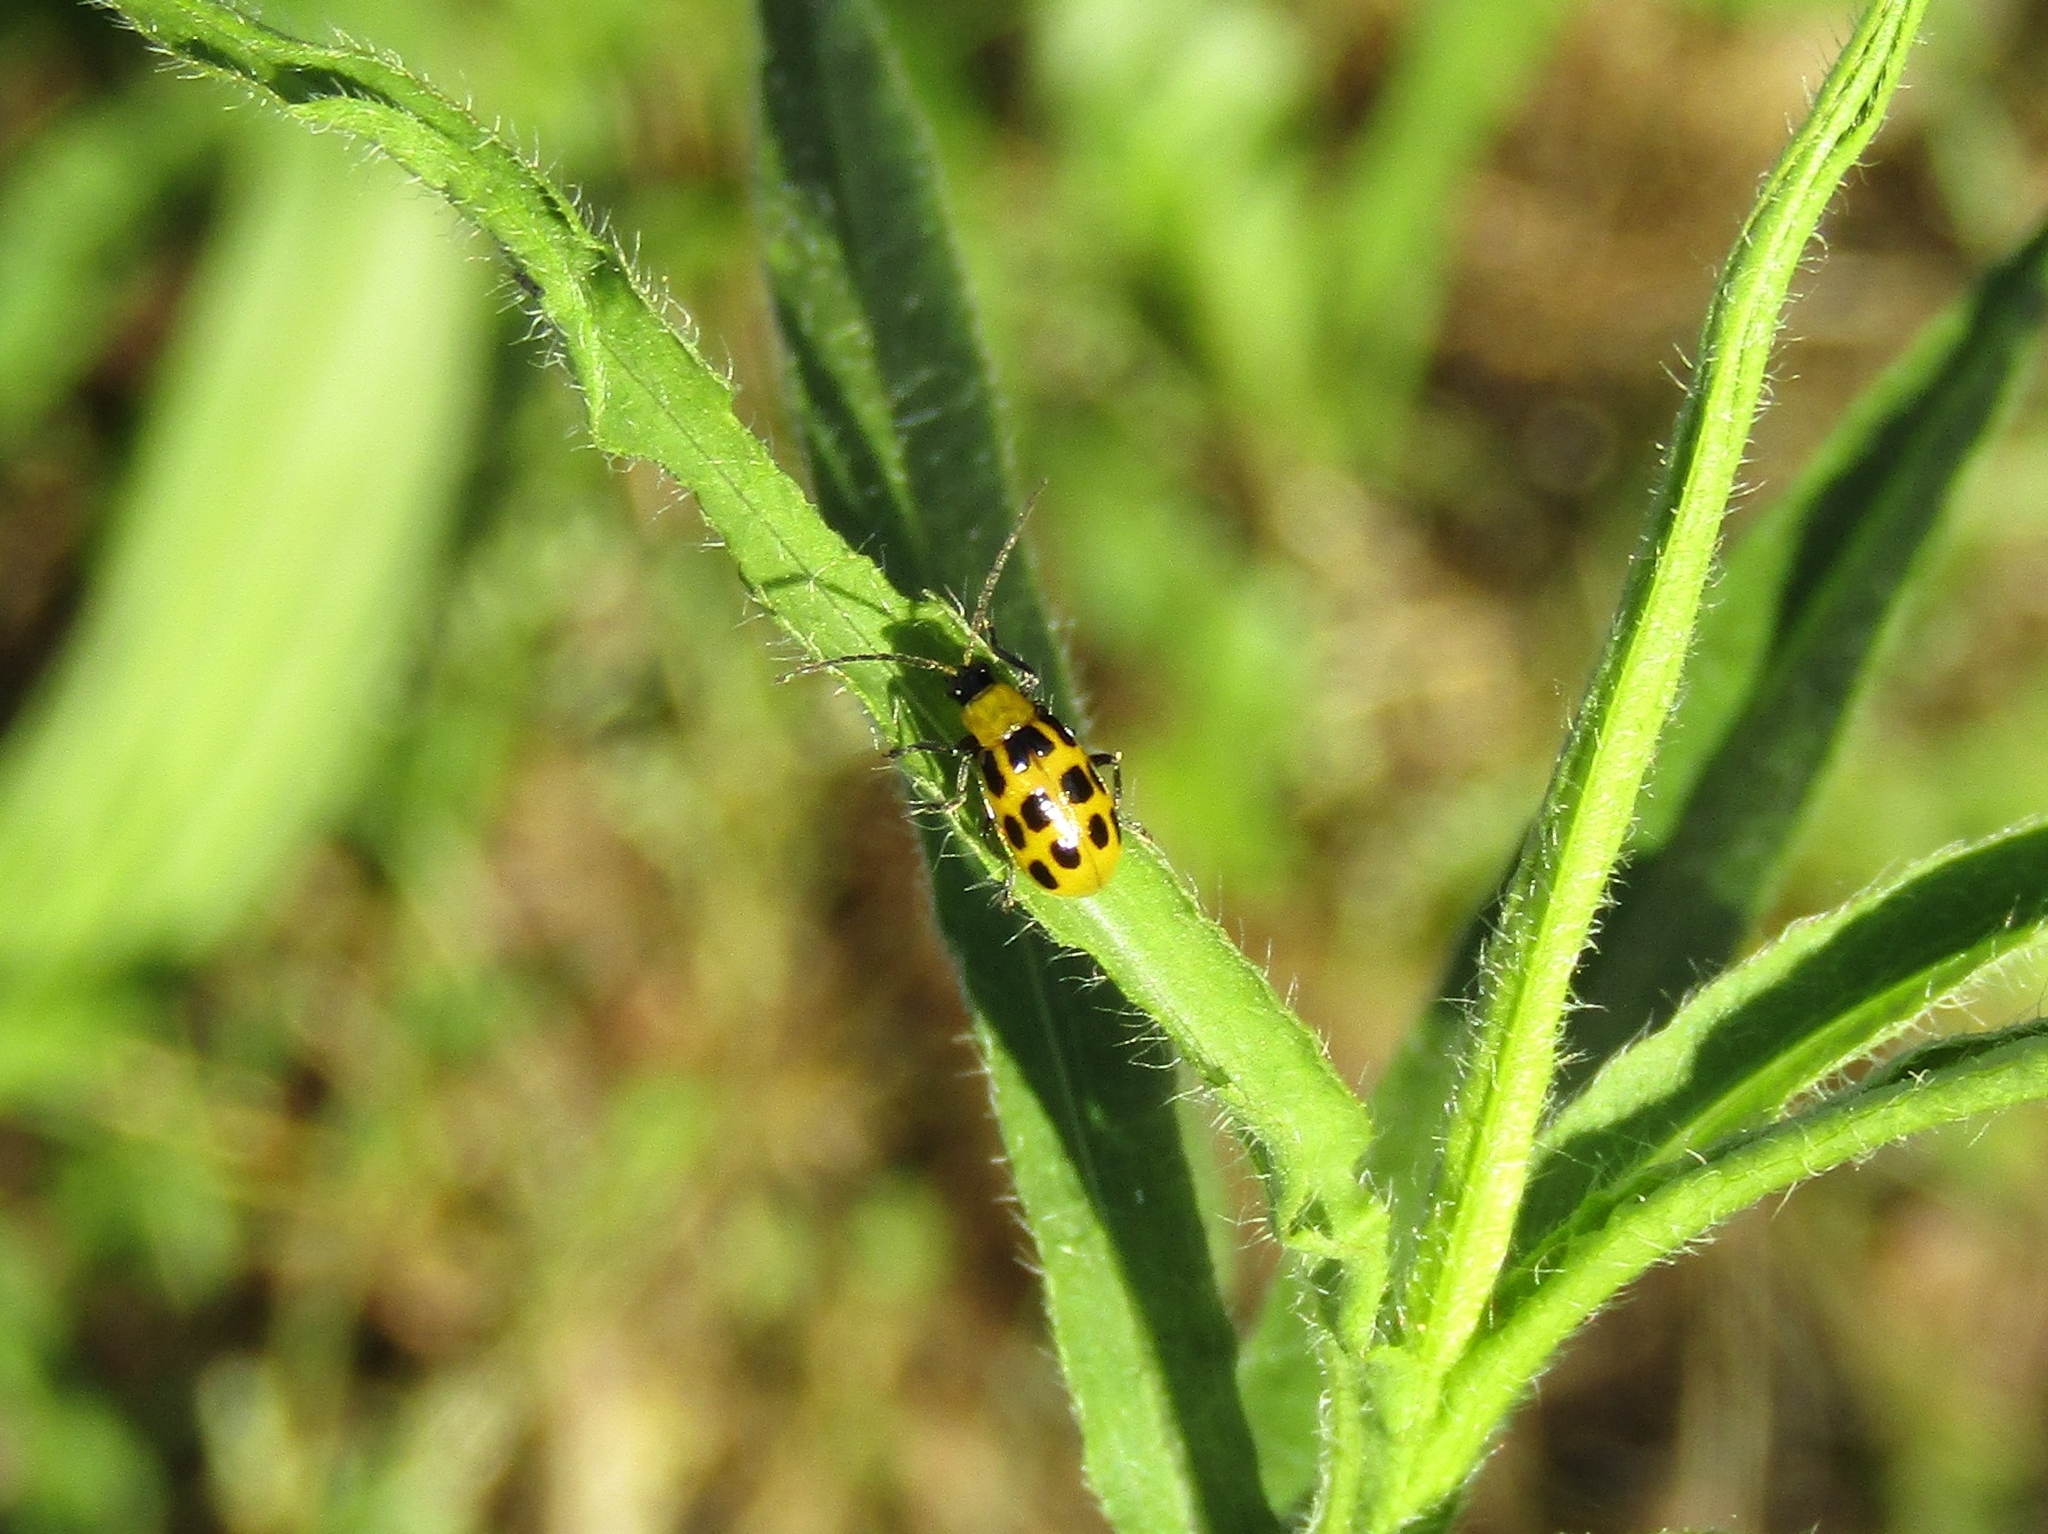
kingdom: Animalia
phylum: Arthropoda
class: Insecta
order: Coleoptera
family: Chrysomelidae
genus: Diabrotica
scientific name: Diabrotica undecimpunctata
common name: Spotted cucumber beetle
